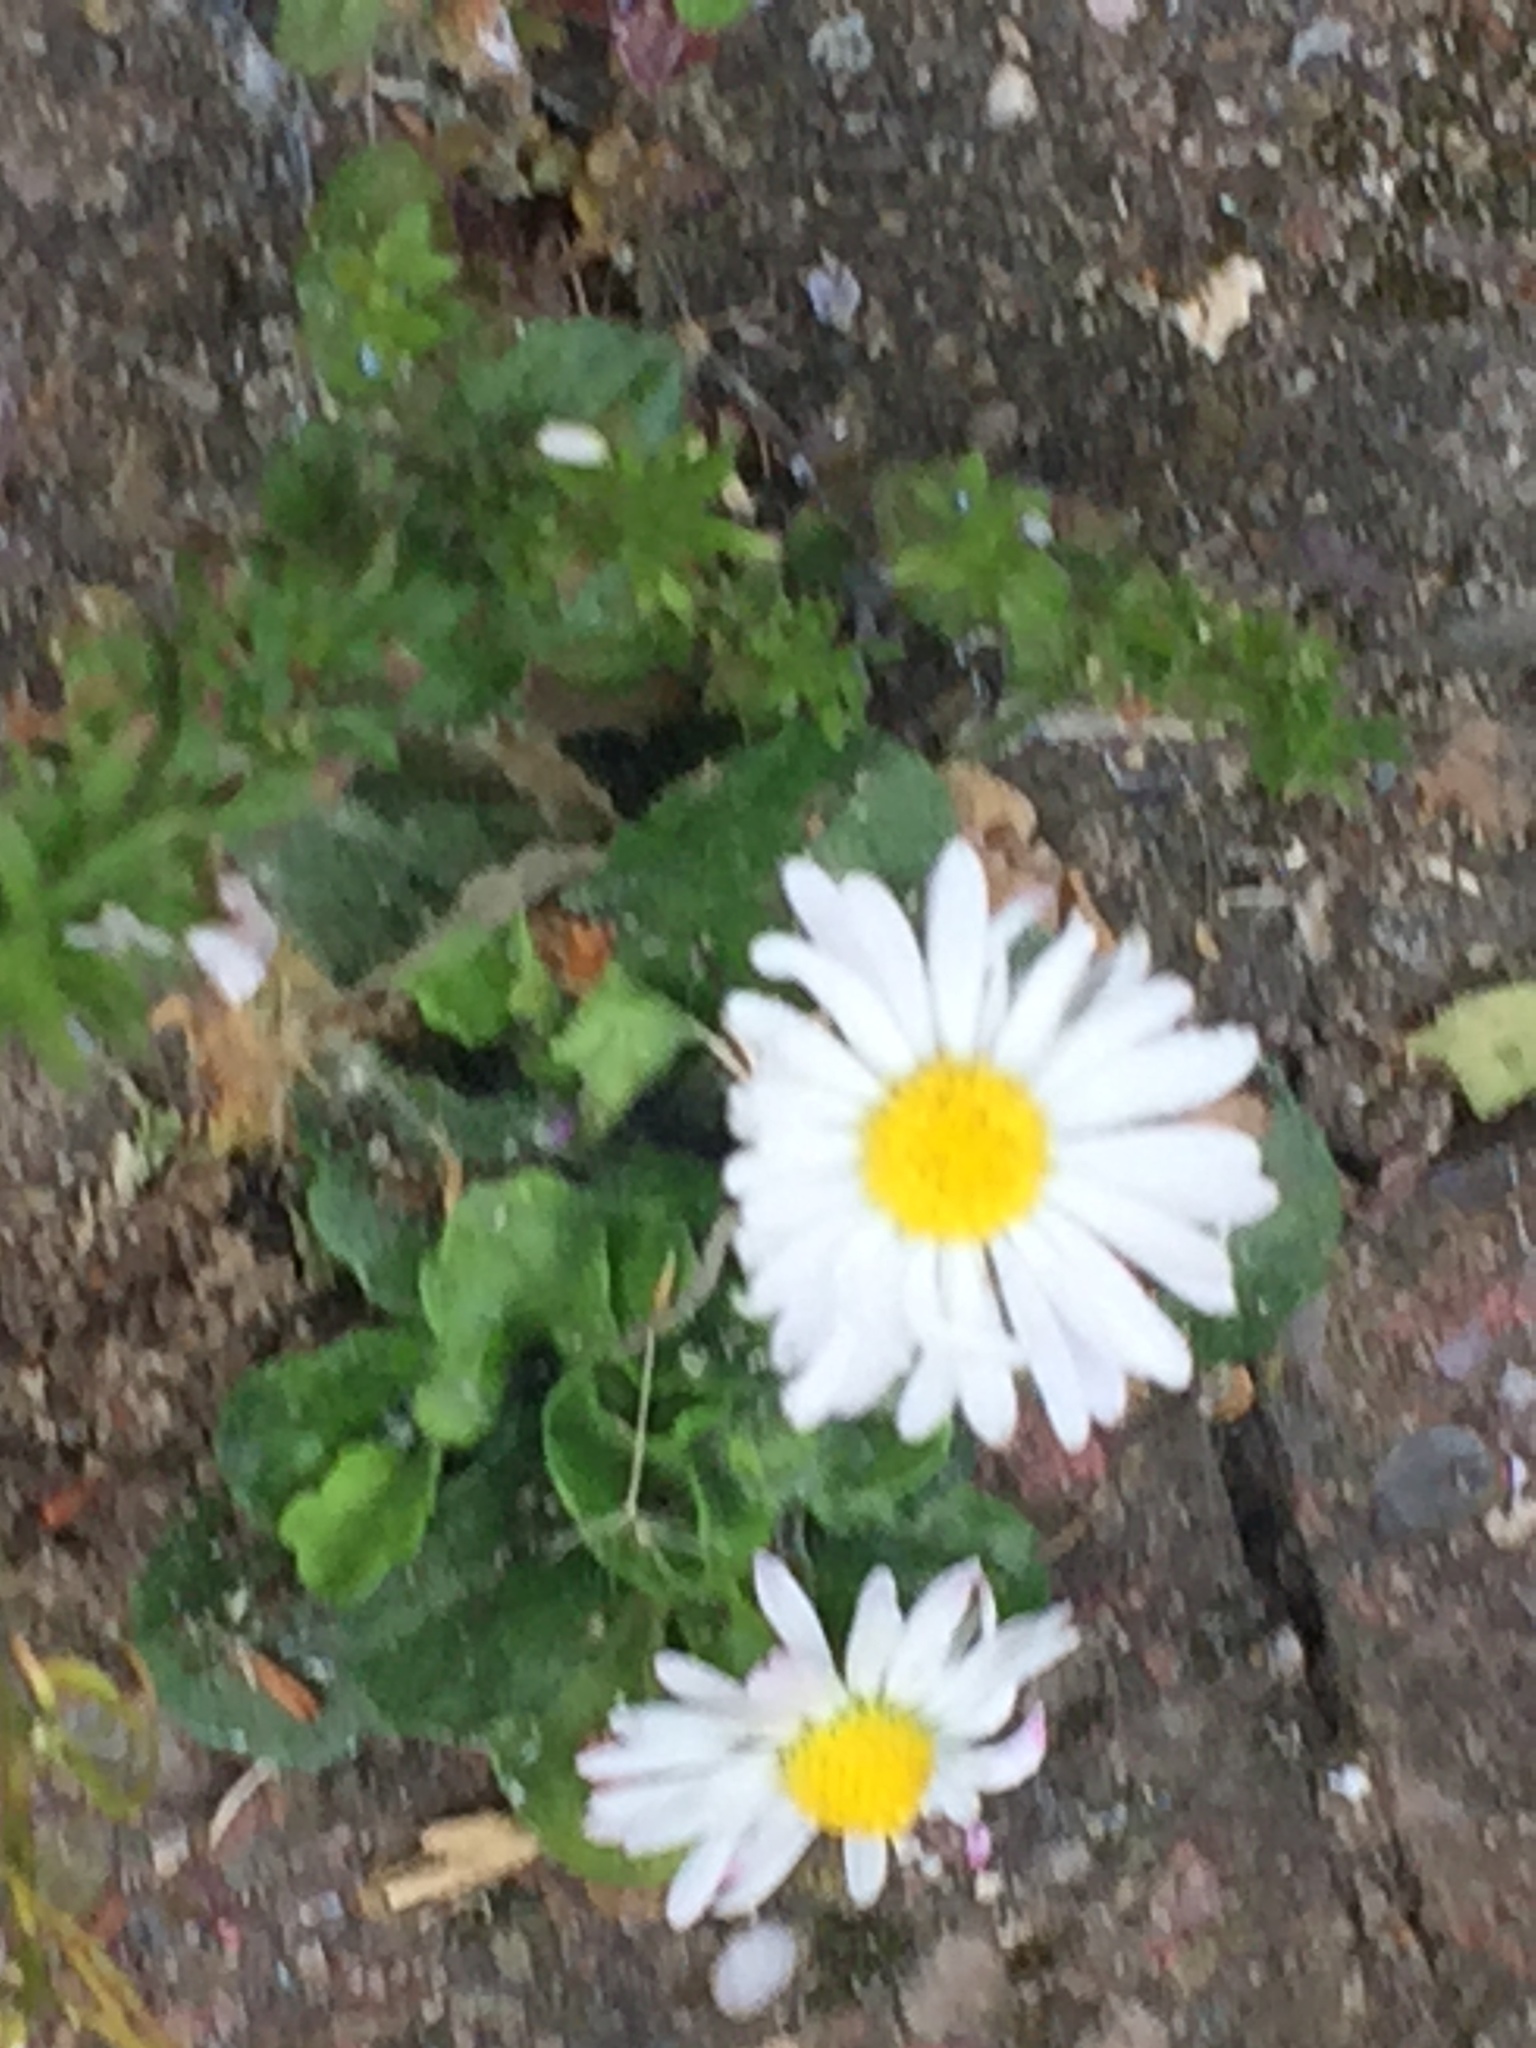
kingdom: Plantae
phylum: Tracheophyta
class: Magnoliopsida
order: Asterales
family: Asteraceae
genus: Bellis
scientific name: Bellis perennis
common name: Lawndaisy
